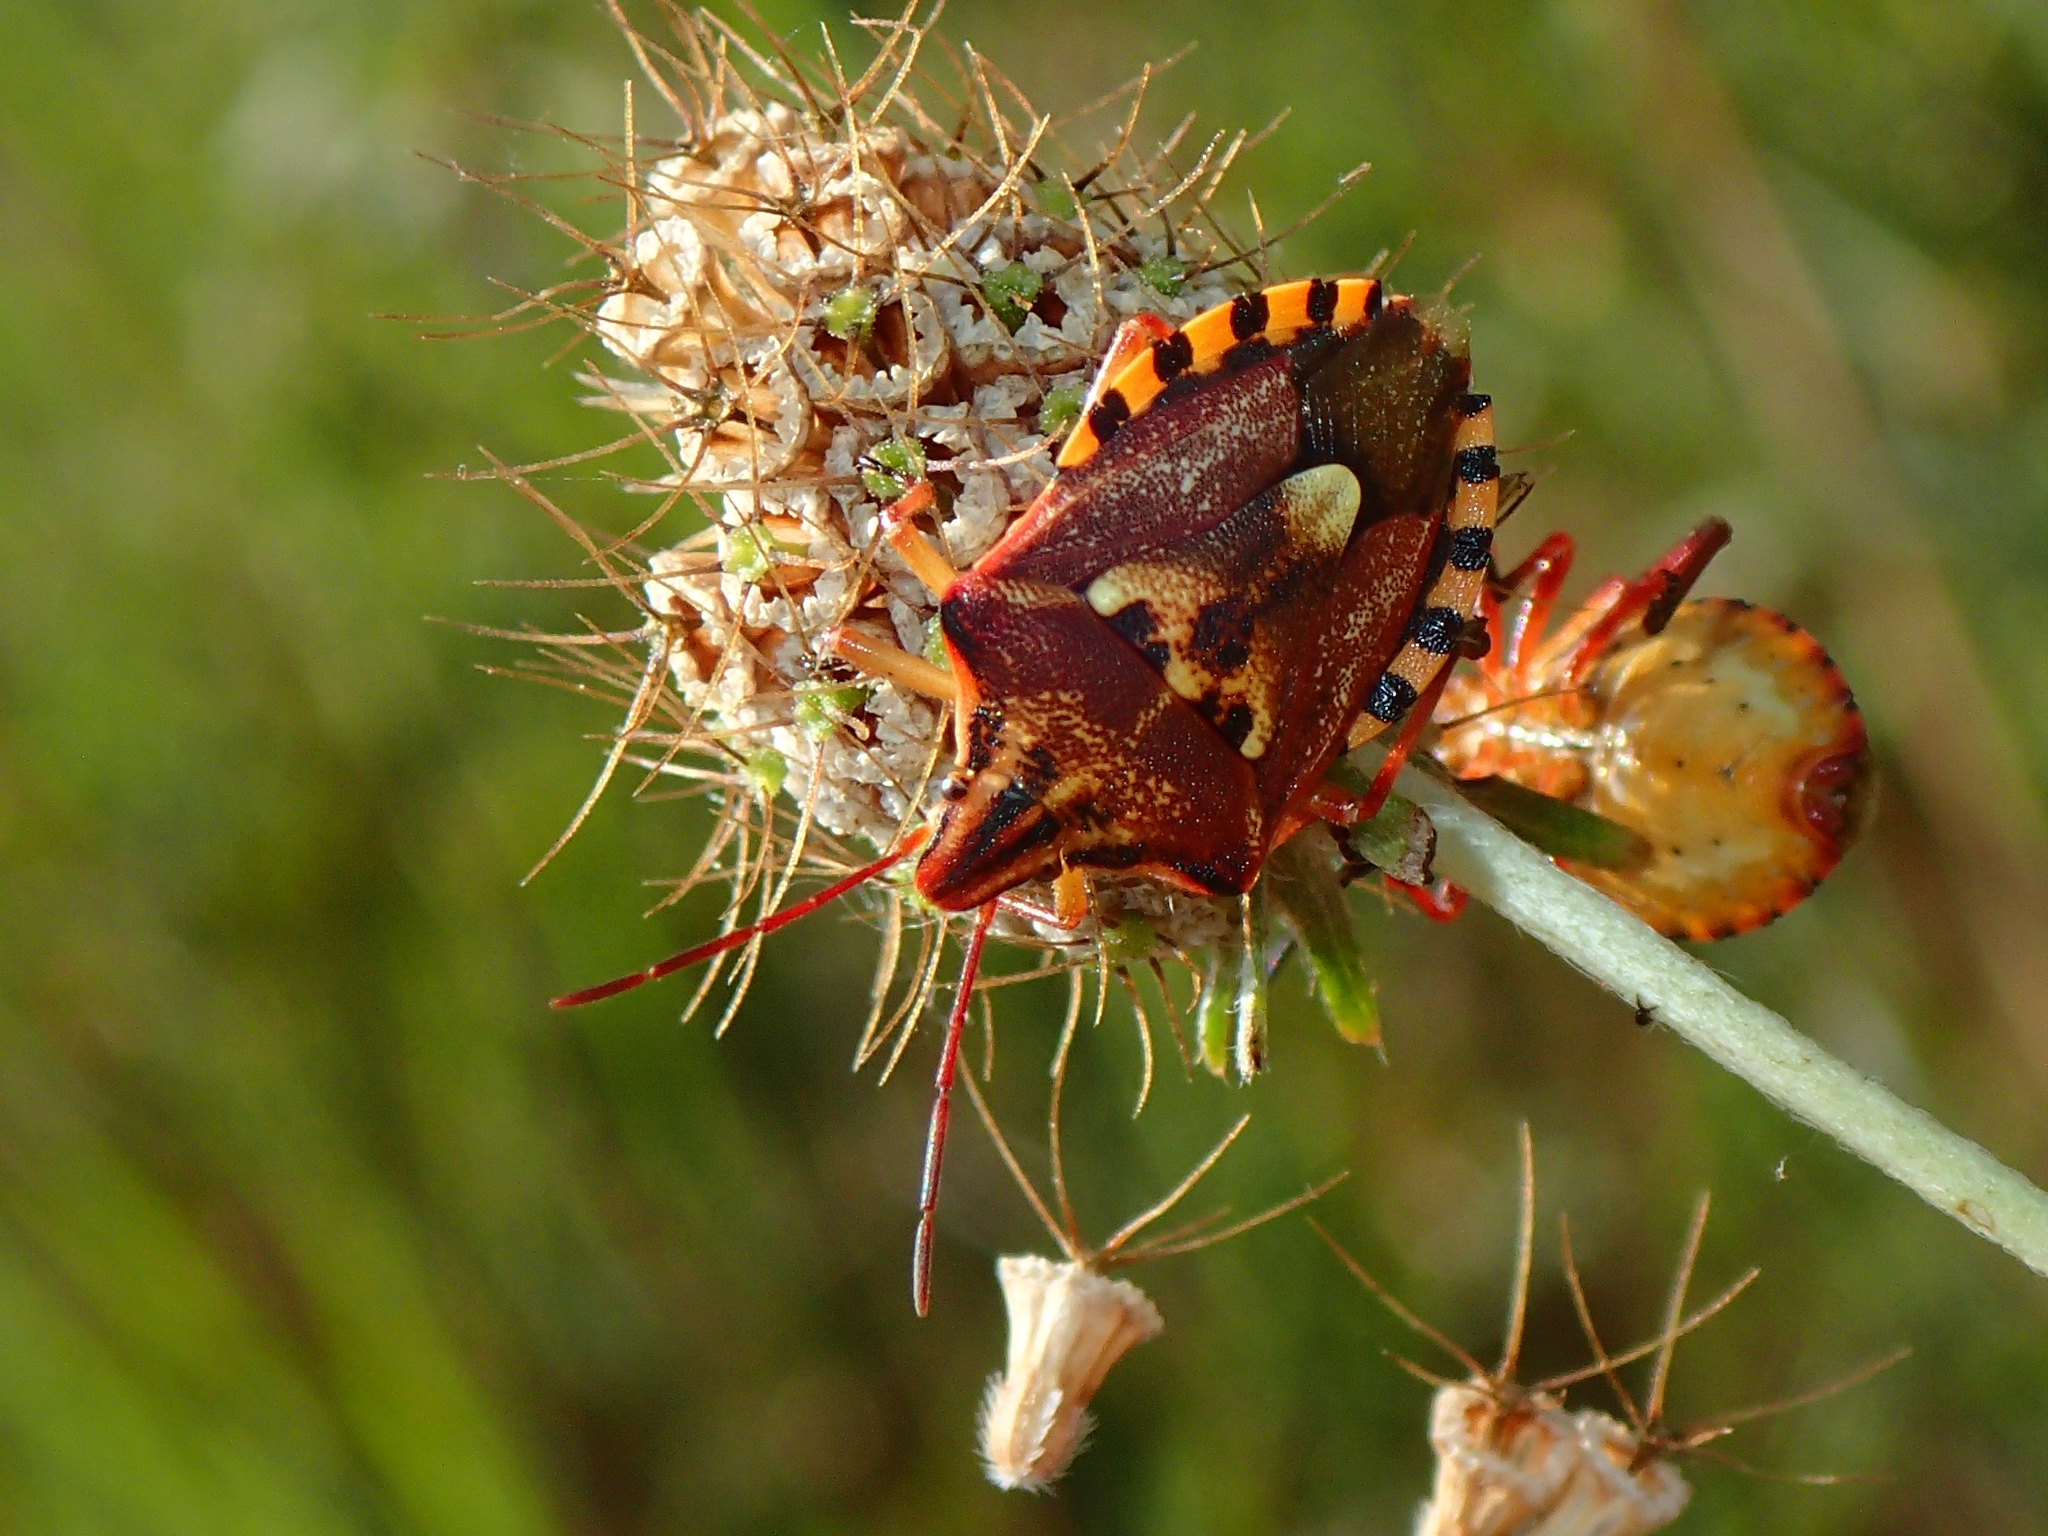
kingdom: Animalia
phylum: Arthropoda
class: Insecta
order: Hemiptera
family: Miridae
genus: Orthops
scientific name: Orthops kalmii
